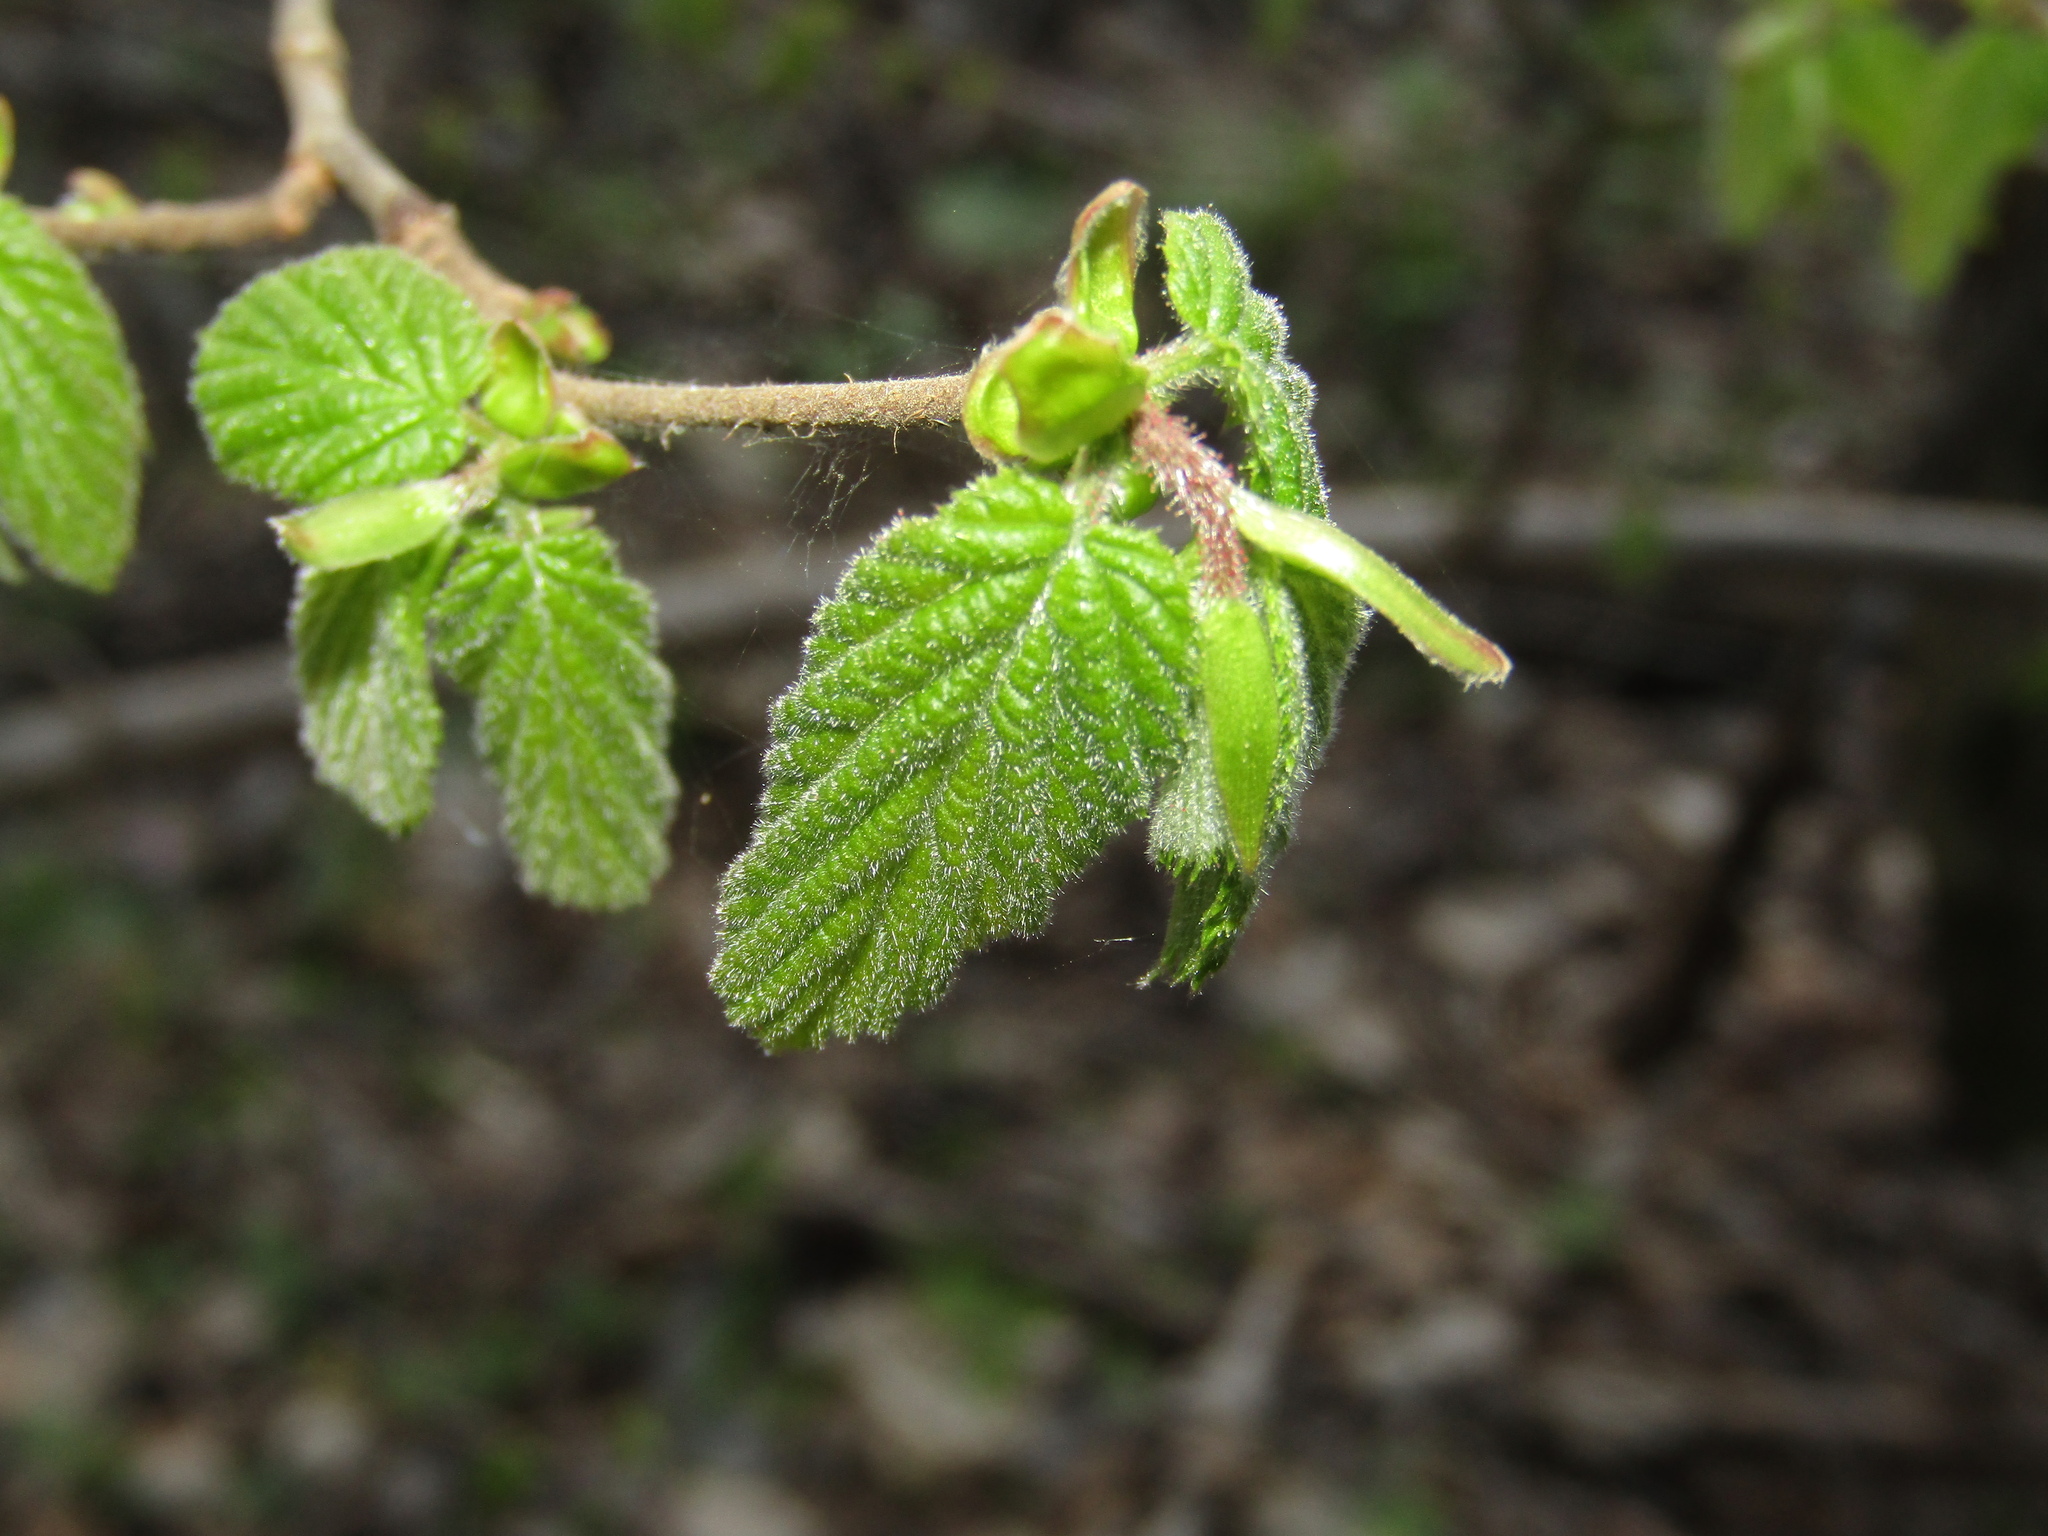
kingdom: Plantae
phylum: Tracheophyta
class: Magnoliopsida
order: Fagales
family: Betulaceae
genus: Corylus
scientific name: Corylus avellana
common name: European hazel
